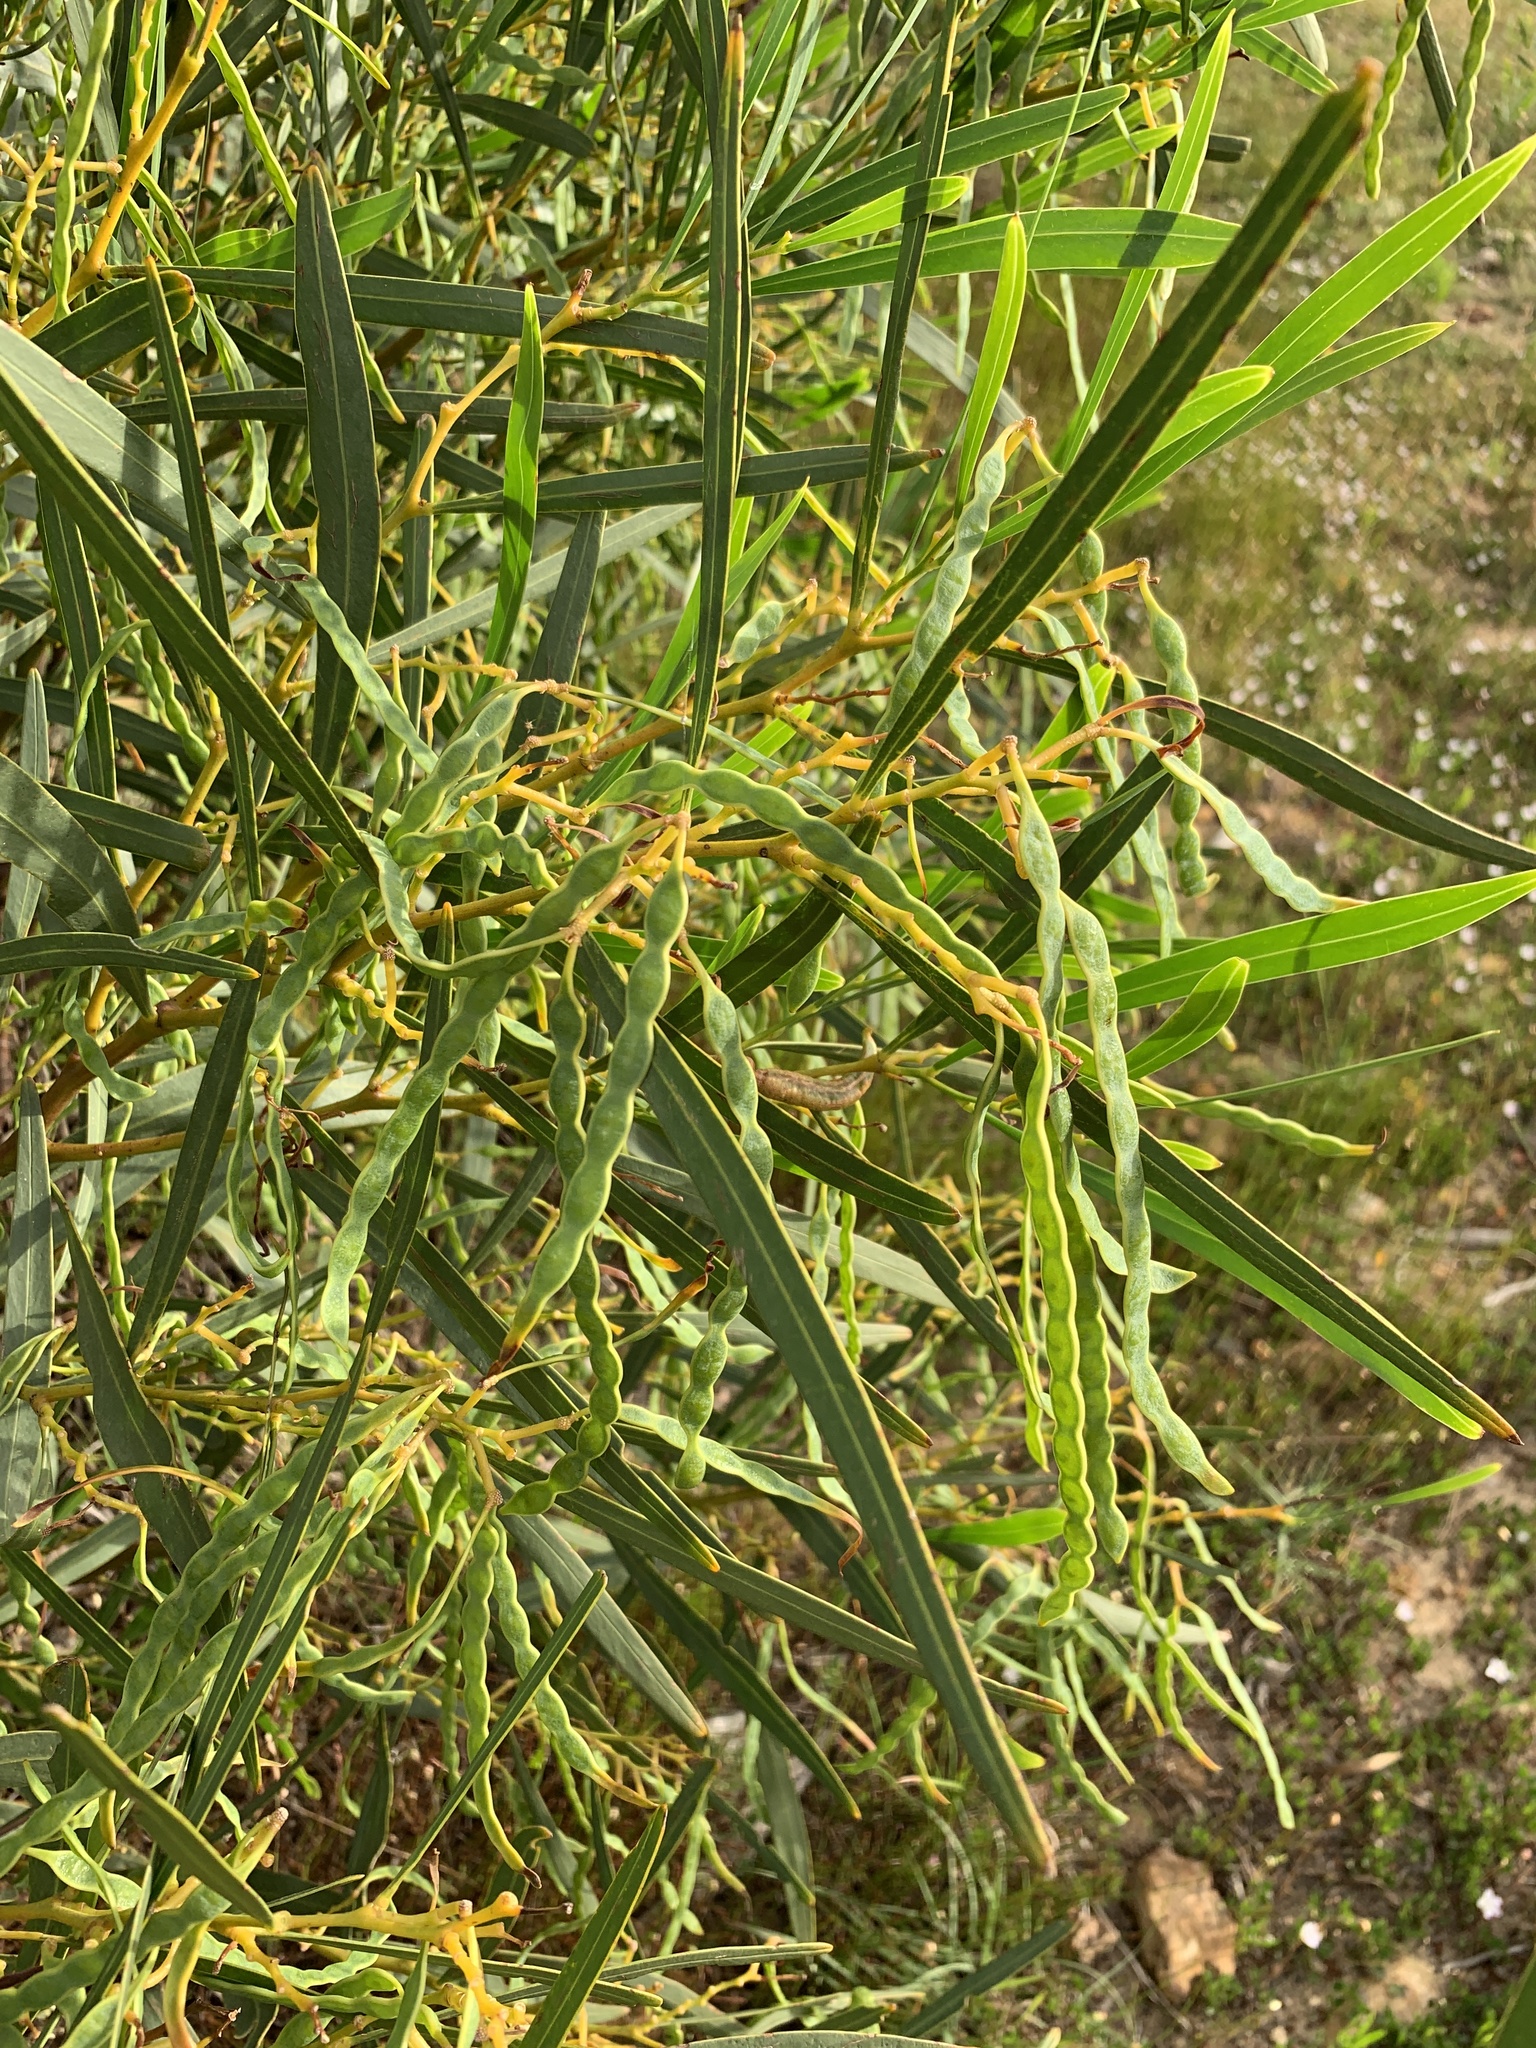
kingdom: Plantae
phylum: Tracheophyta
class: Magnoliopsida
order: Fabales
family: Fabaceae
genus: Acacia
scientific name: Acacia saligna
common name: Orange wattle
